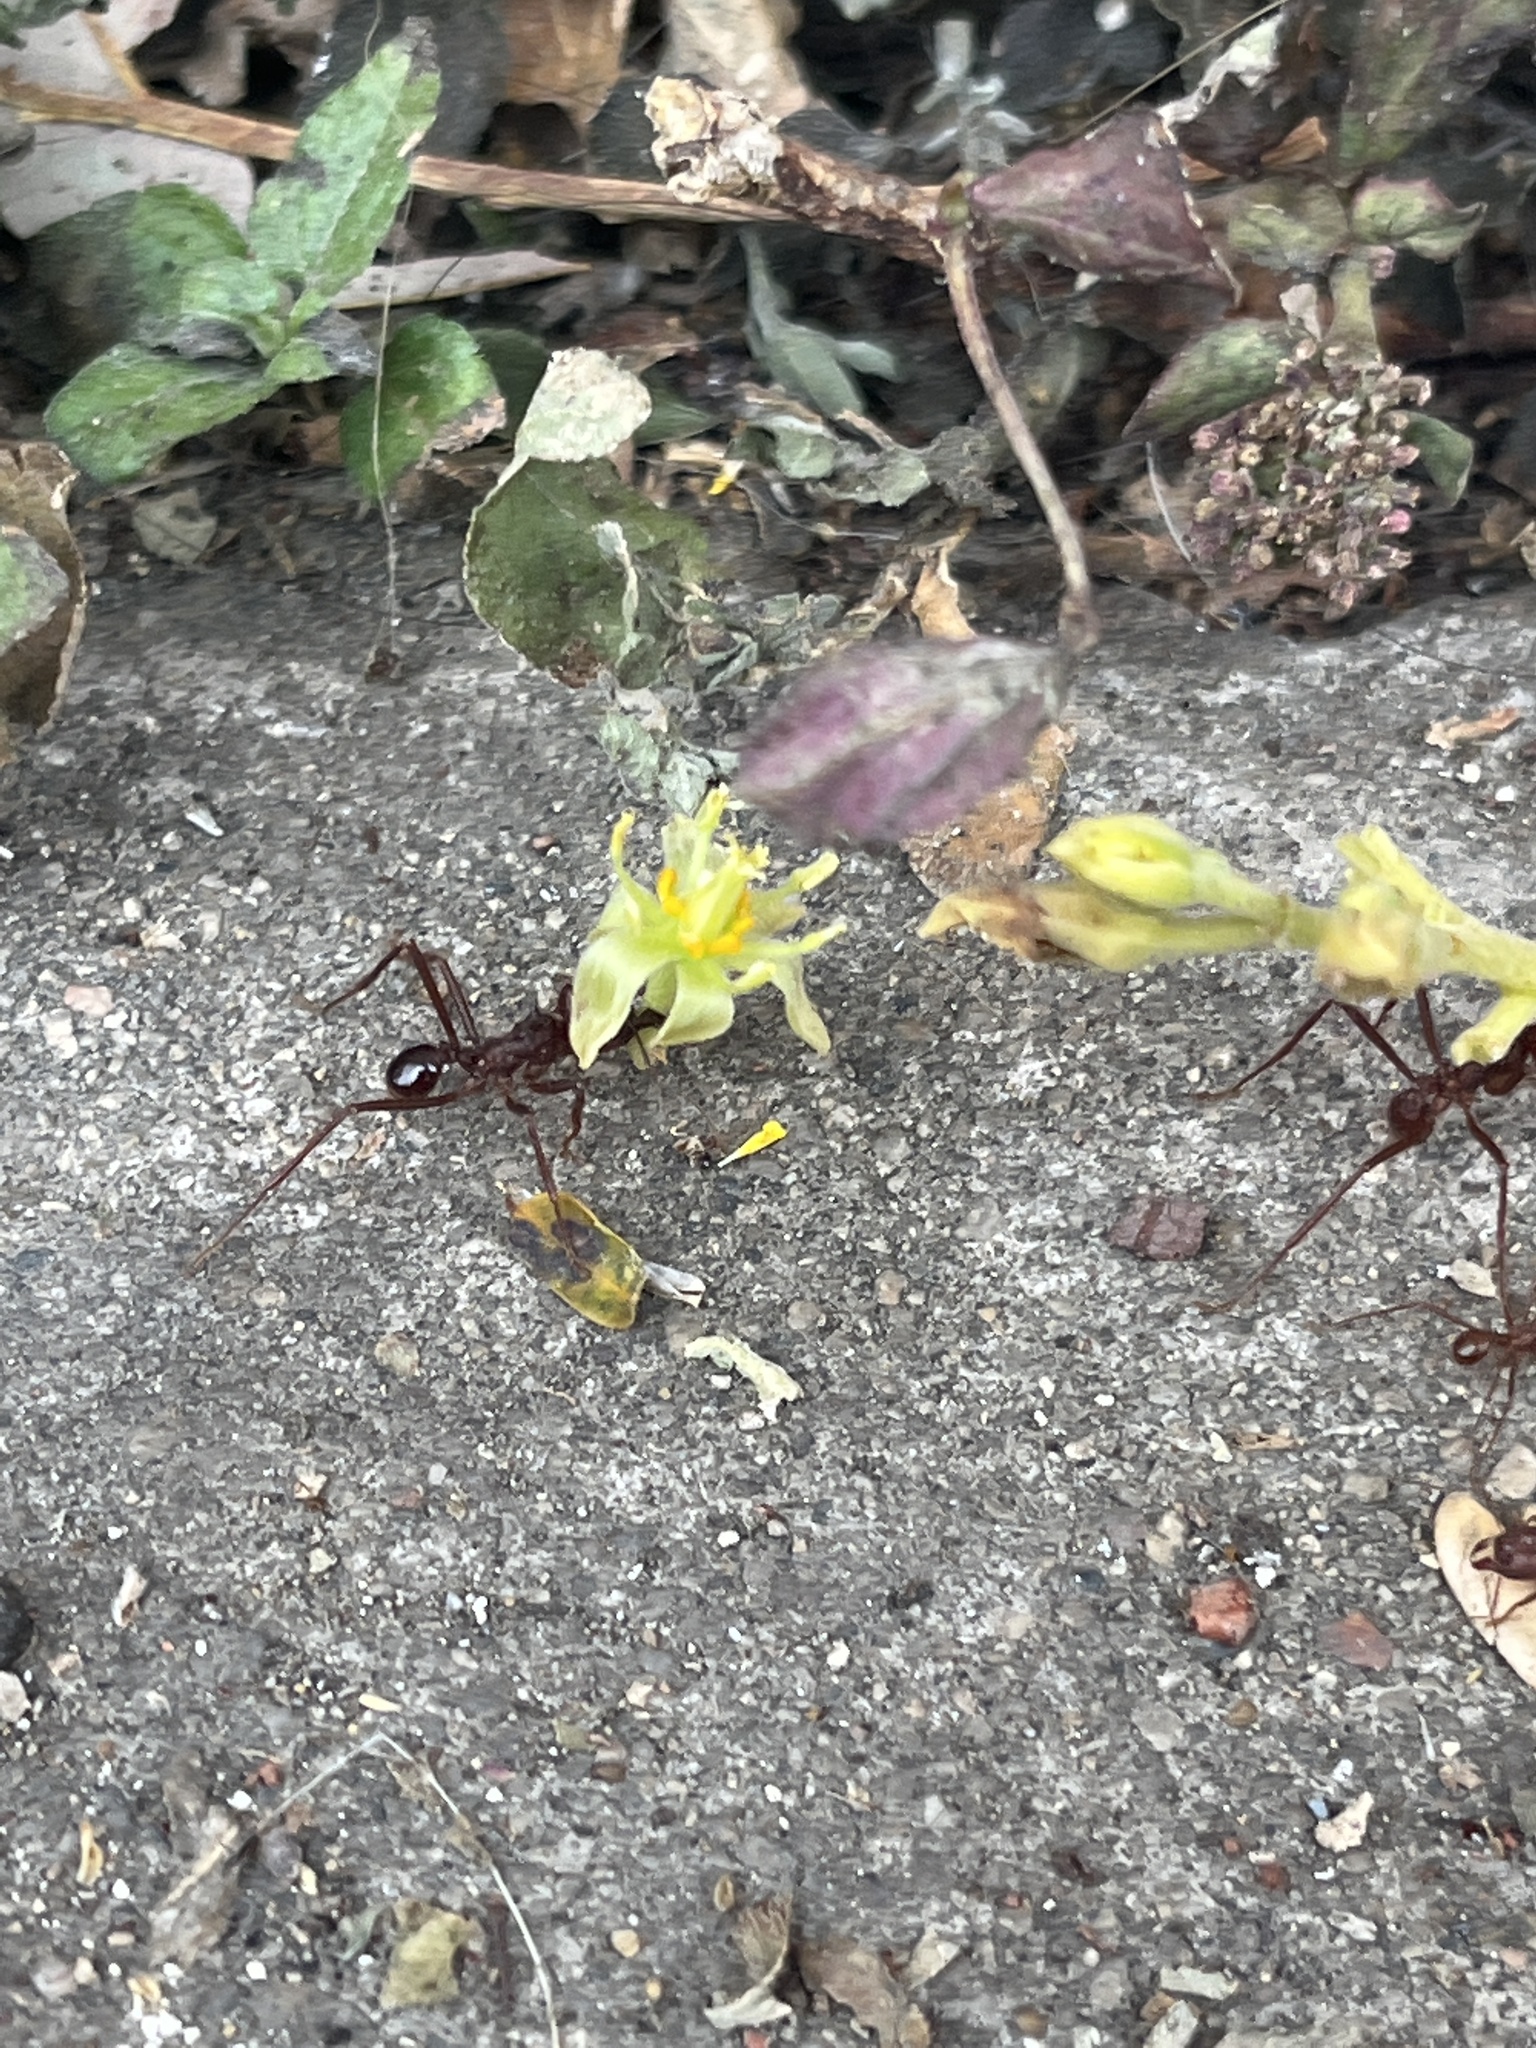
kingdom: Animalia
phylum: Arthropoda
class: Insecta
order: Hymenoptera
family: Formicidae
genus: Atta
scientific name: Atta mexicana
